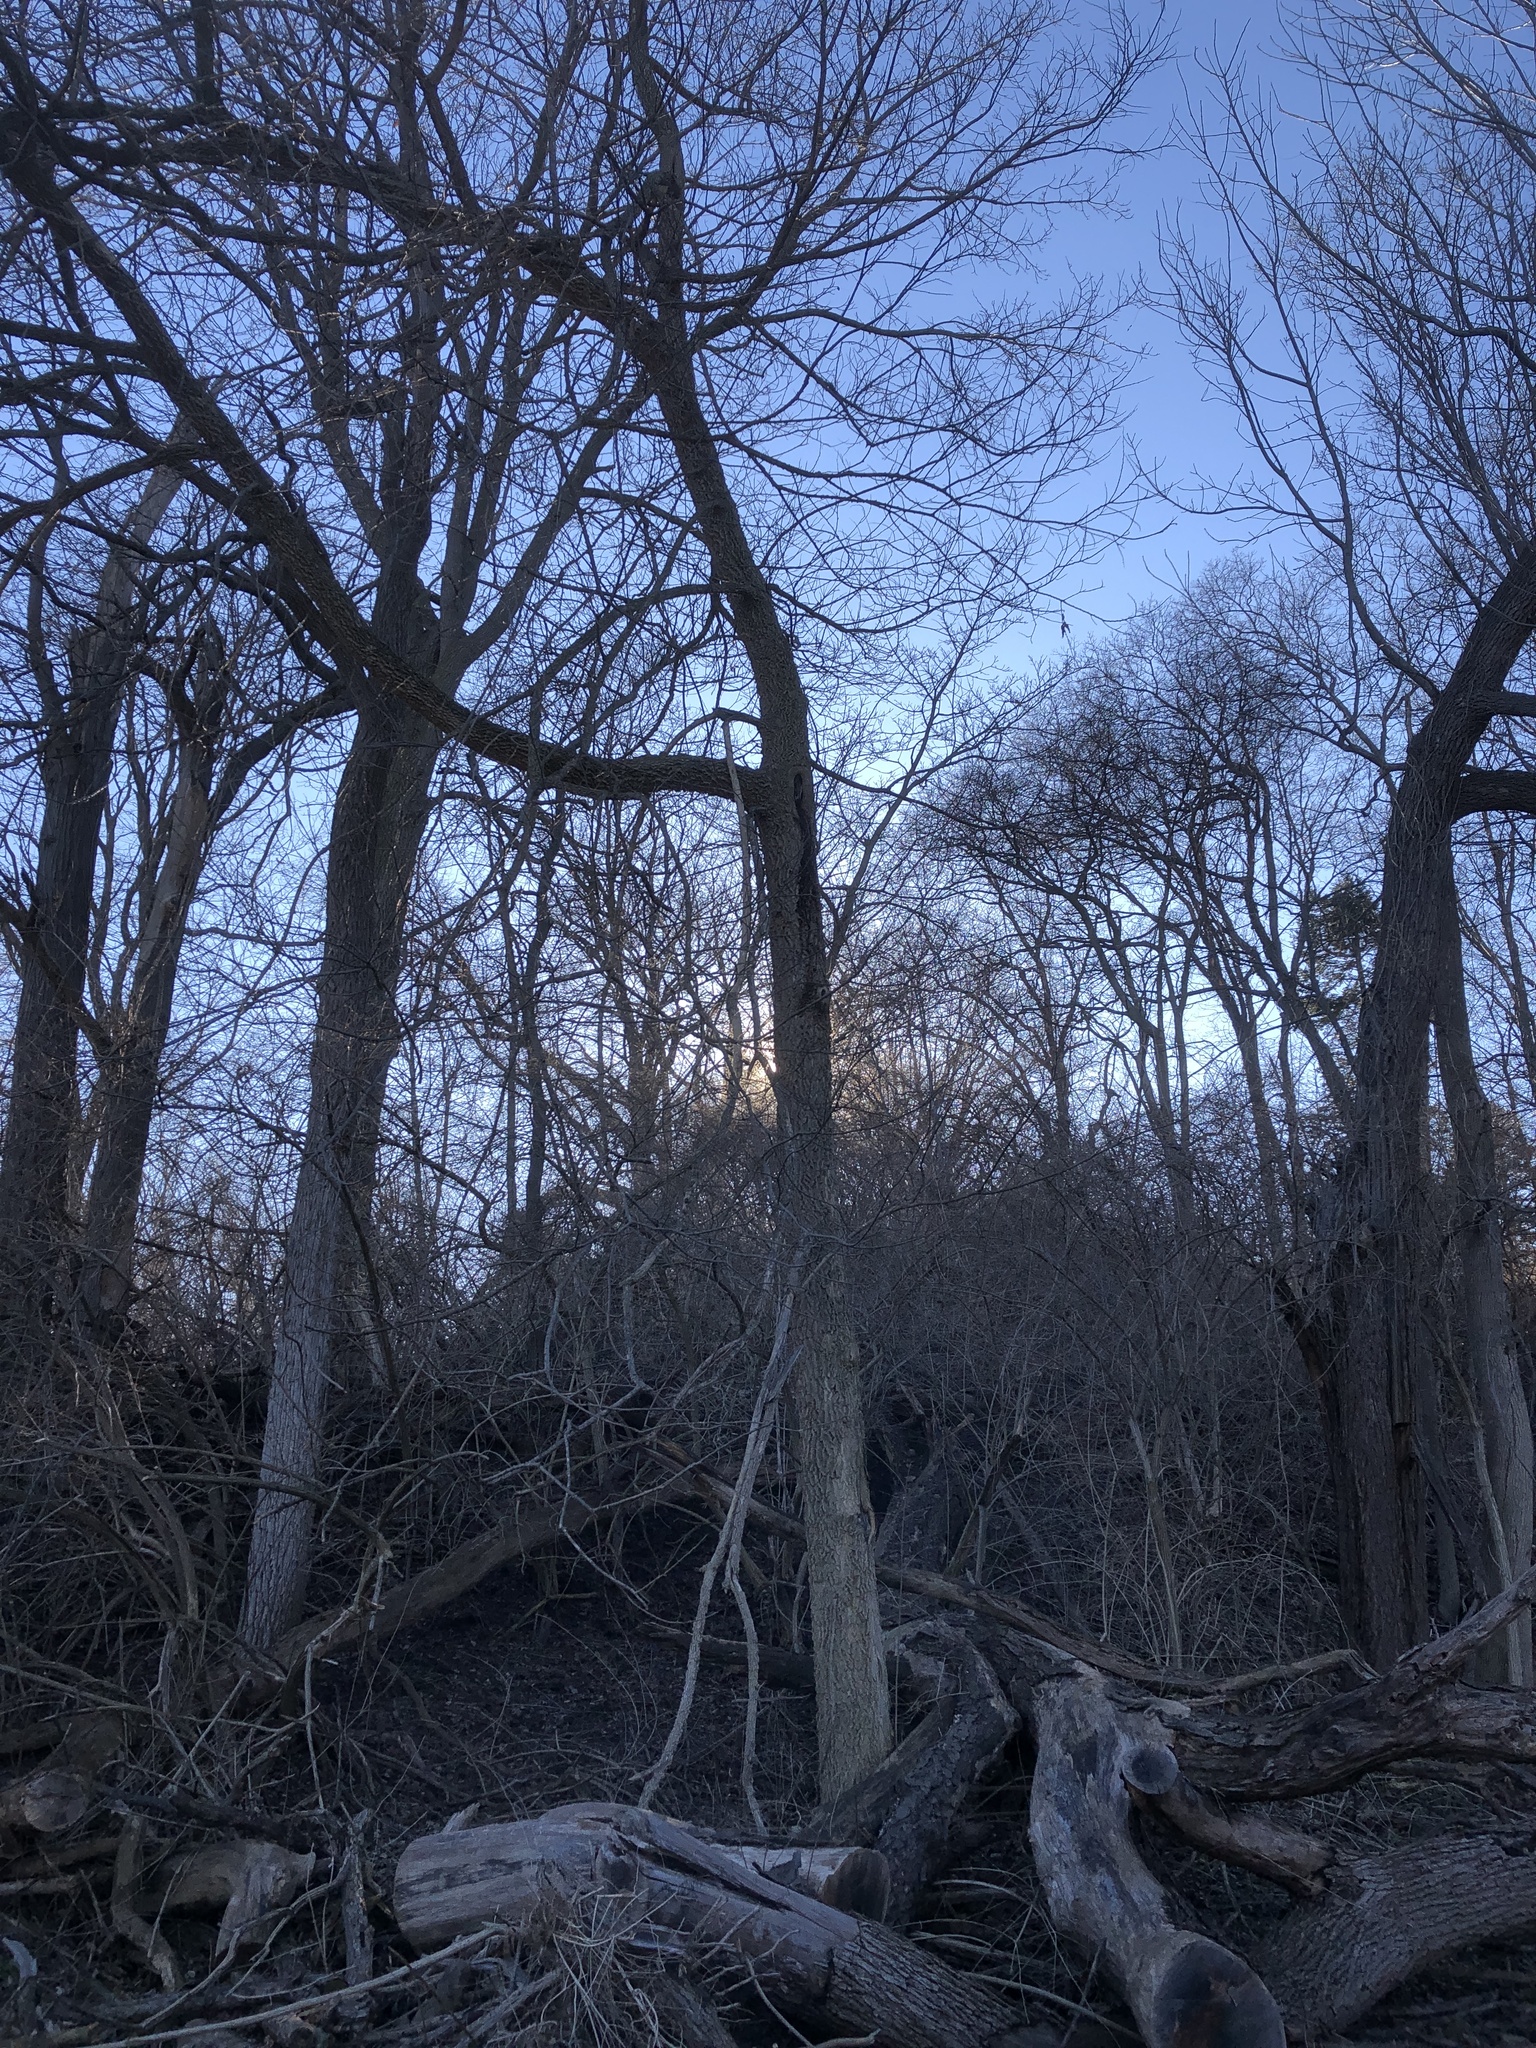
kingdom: Plantae
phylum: Tracheophyta
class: Magnoliopsida
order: Rosales
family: Cannabaceae
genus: Celtis
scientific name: Celtis occidentalis
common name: Common hackberry
